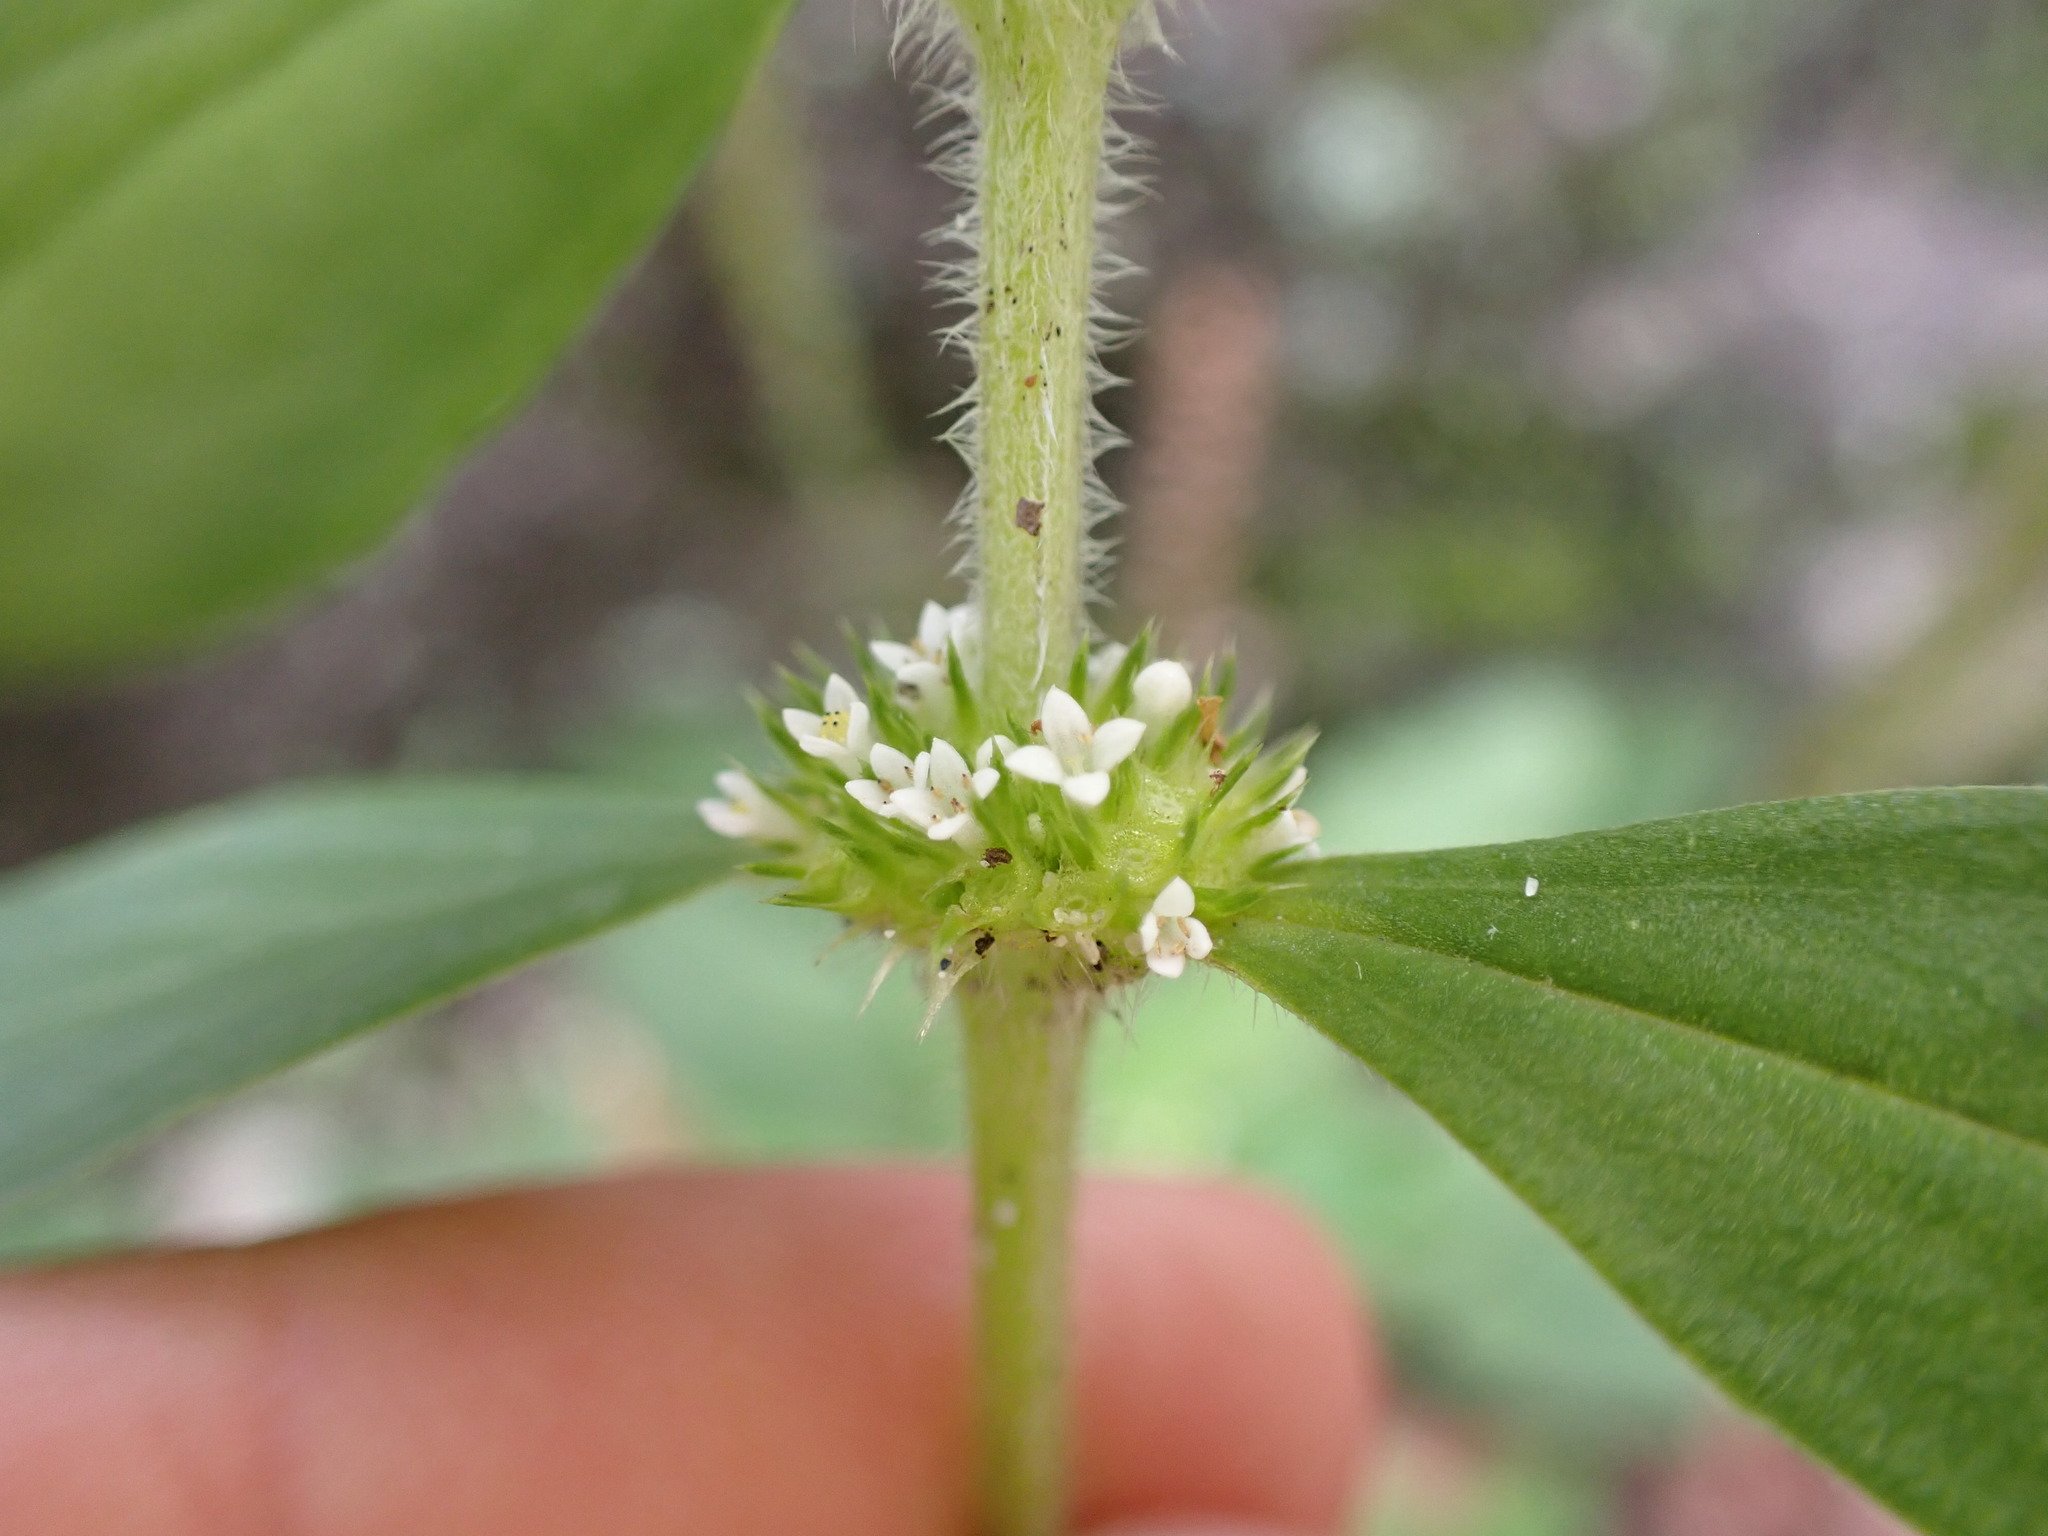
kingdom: Plantae
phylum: Tracheophyta
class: Magnoliopsida
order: Gentianales
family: Rubiaceae
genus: Mitracarpus
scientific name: Mitracarpus hirtus
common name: Tropical girdlepod
